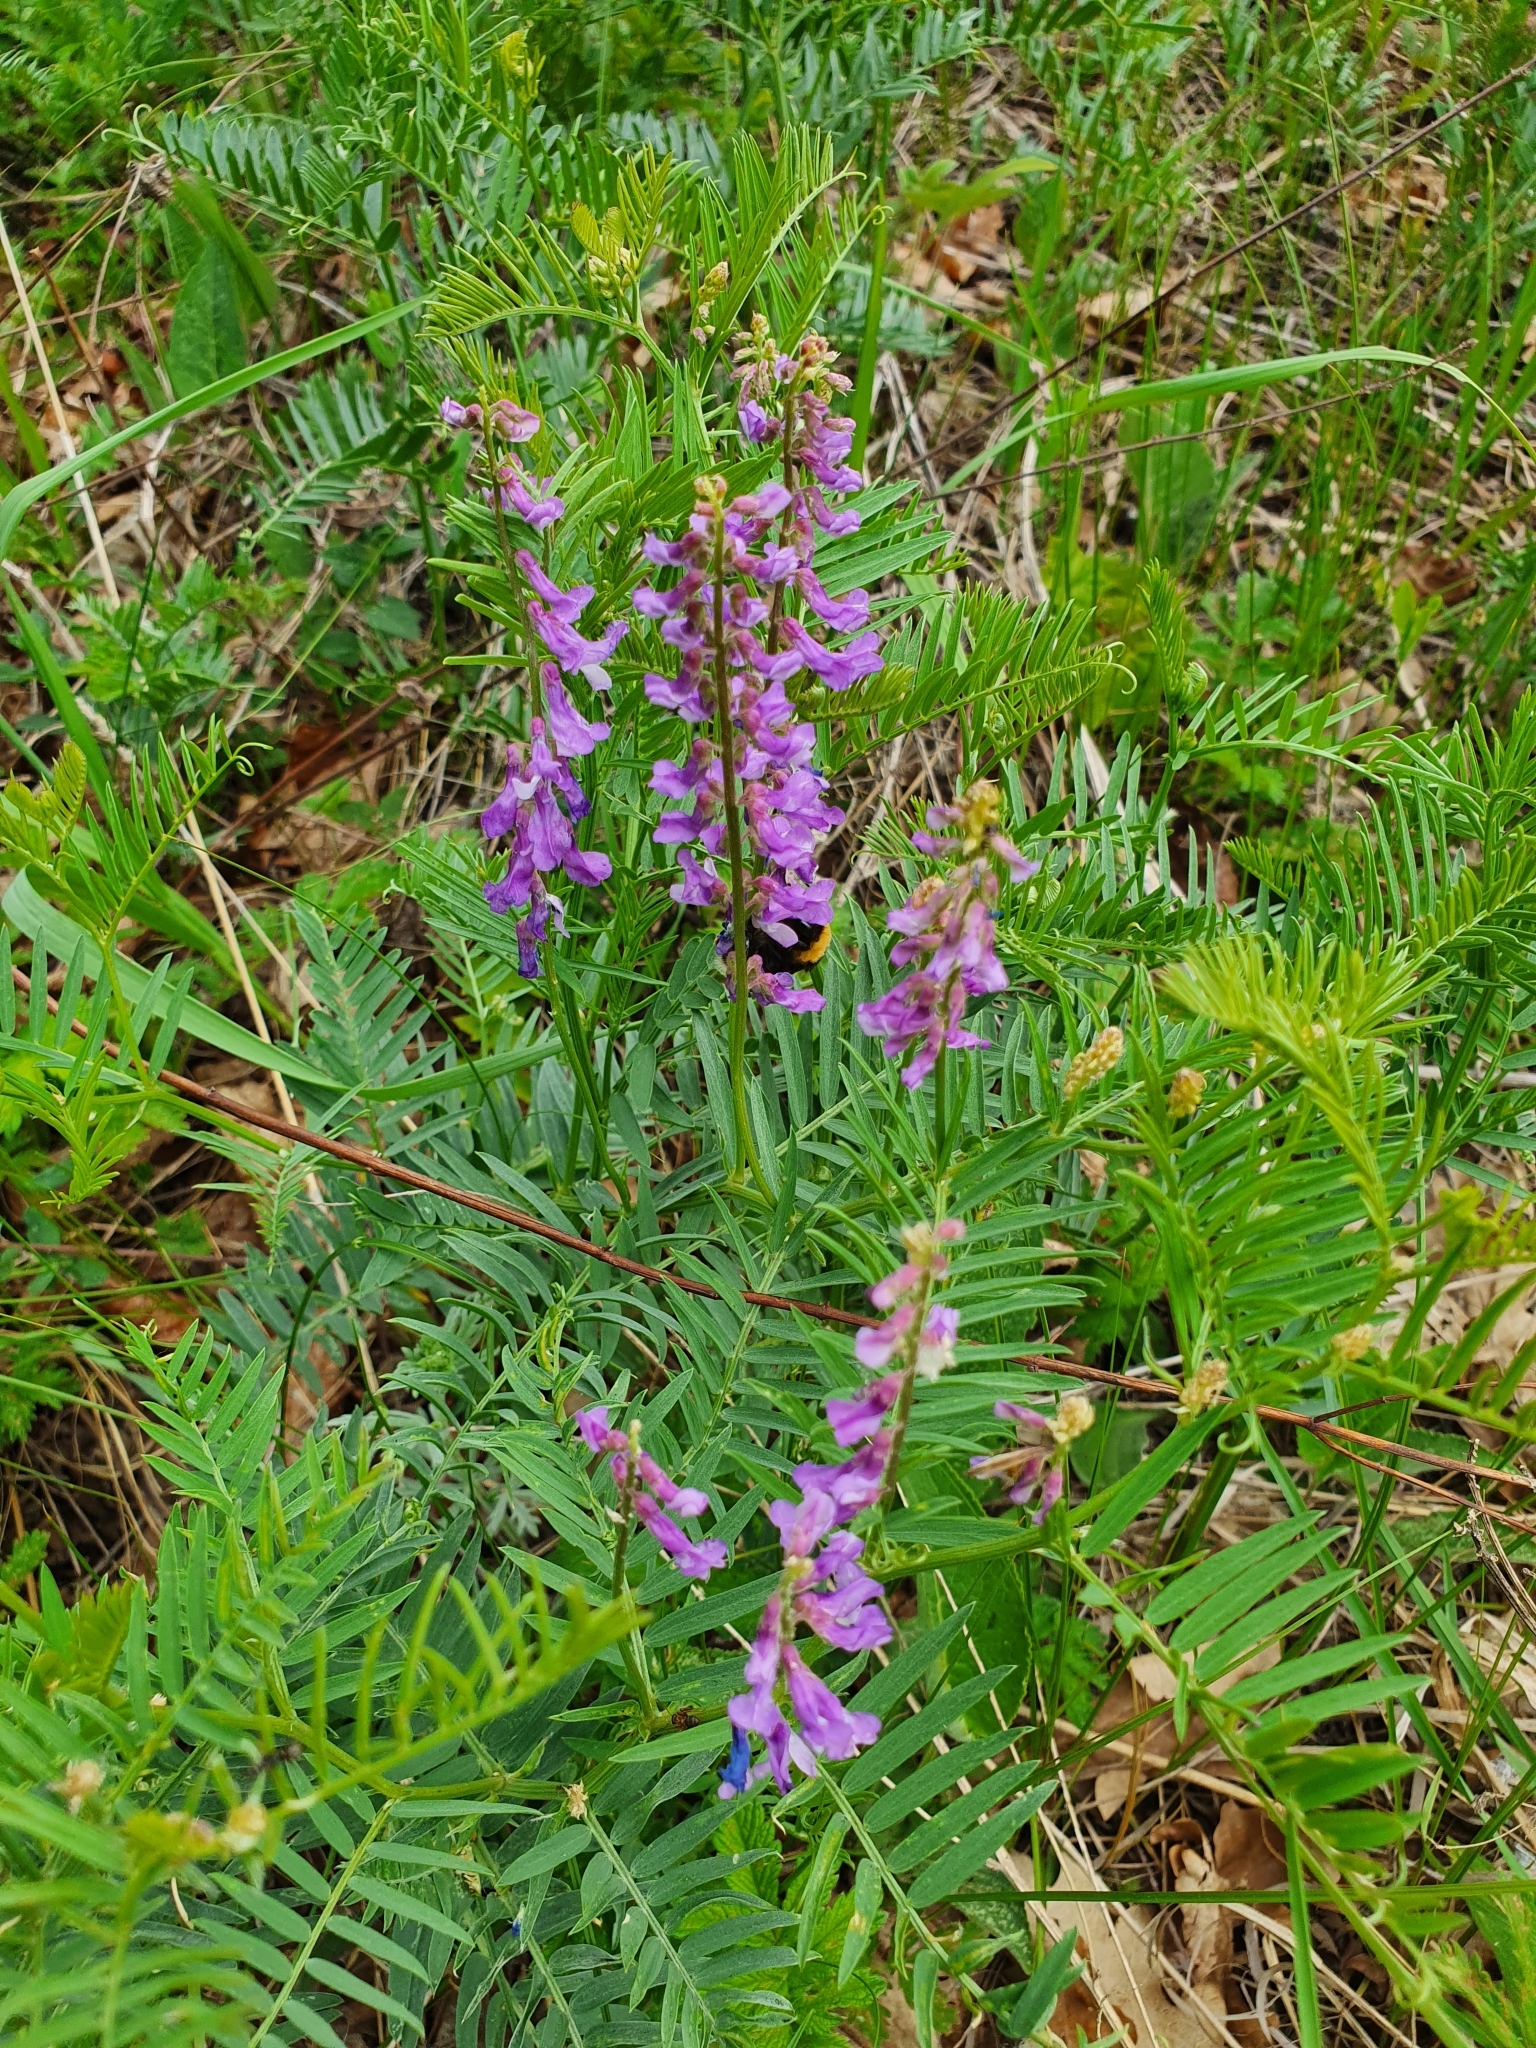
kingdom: Plantae
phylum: Tracheophyta
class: Magnoliopsida
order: Fabales
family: Fabaceae
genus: Vicia
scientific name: Vicia tenuifolia
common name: Fine-leaved vetch
